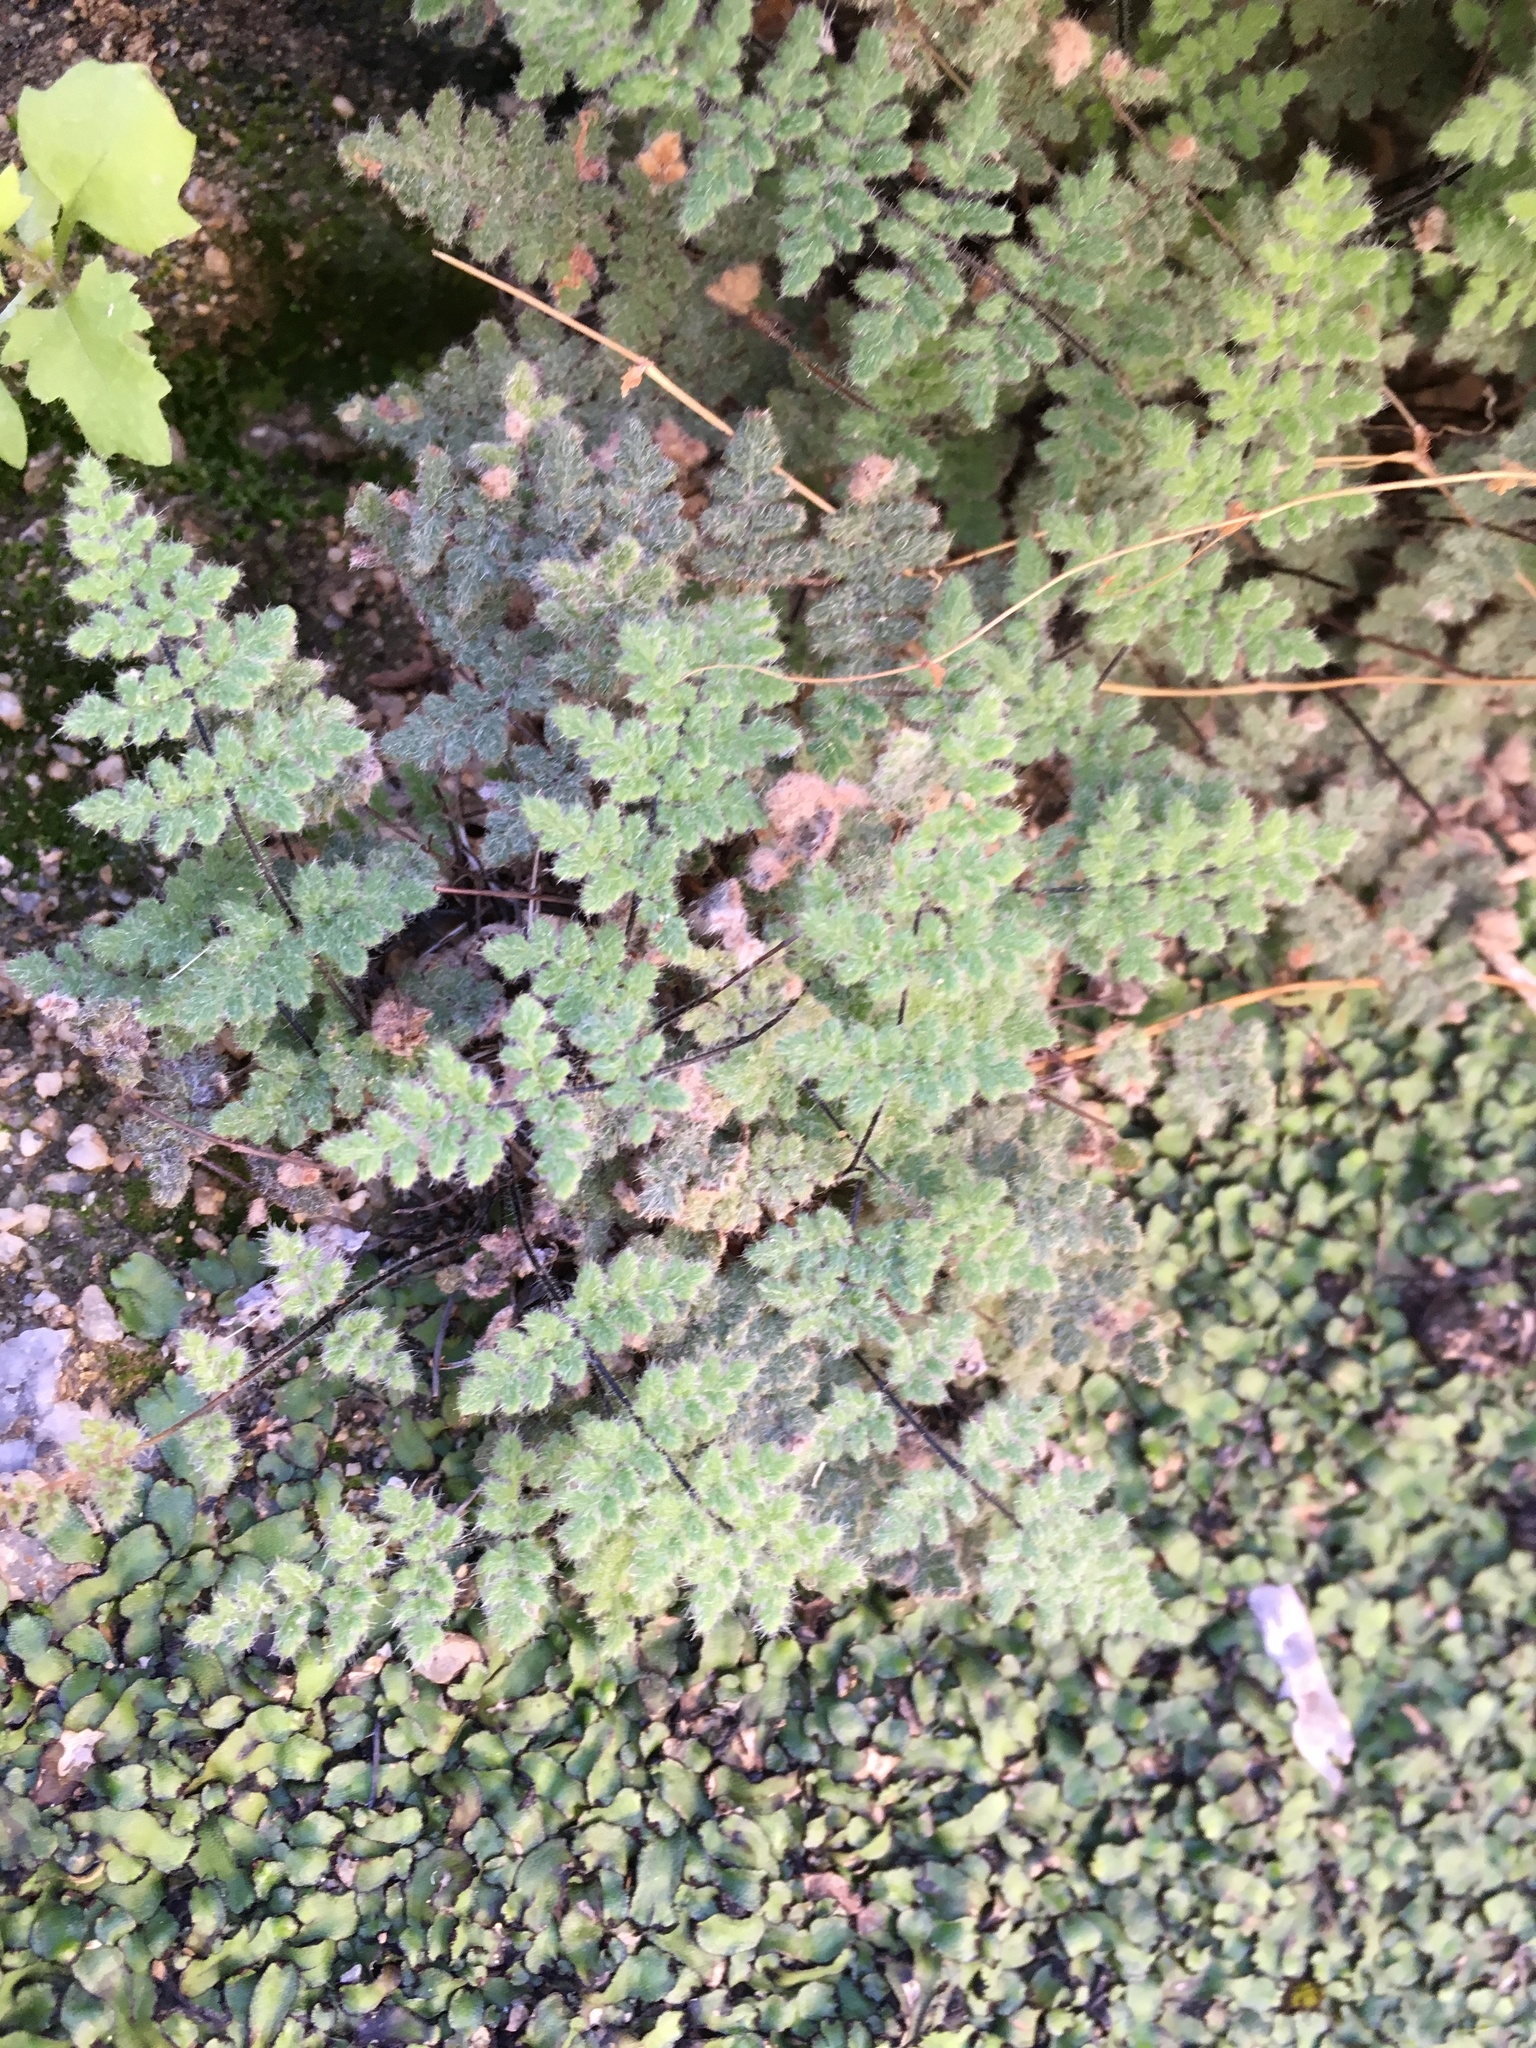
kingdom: Plantae
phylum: Tracheophyta
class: Polypodiopsida
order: Polypodiales
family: Pteridaceae
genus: Myriopteris
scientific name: Myriopteris parryi
